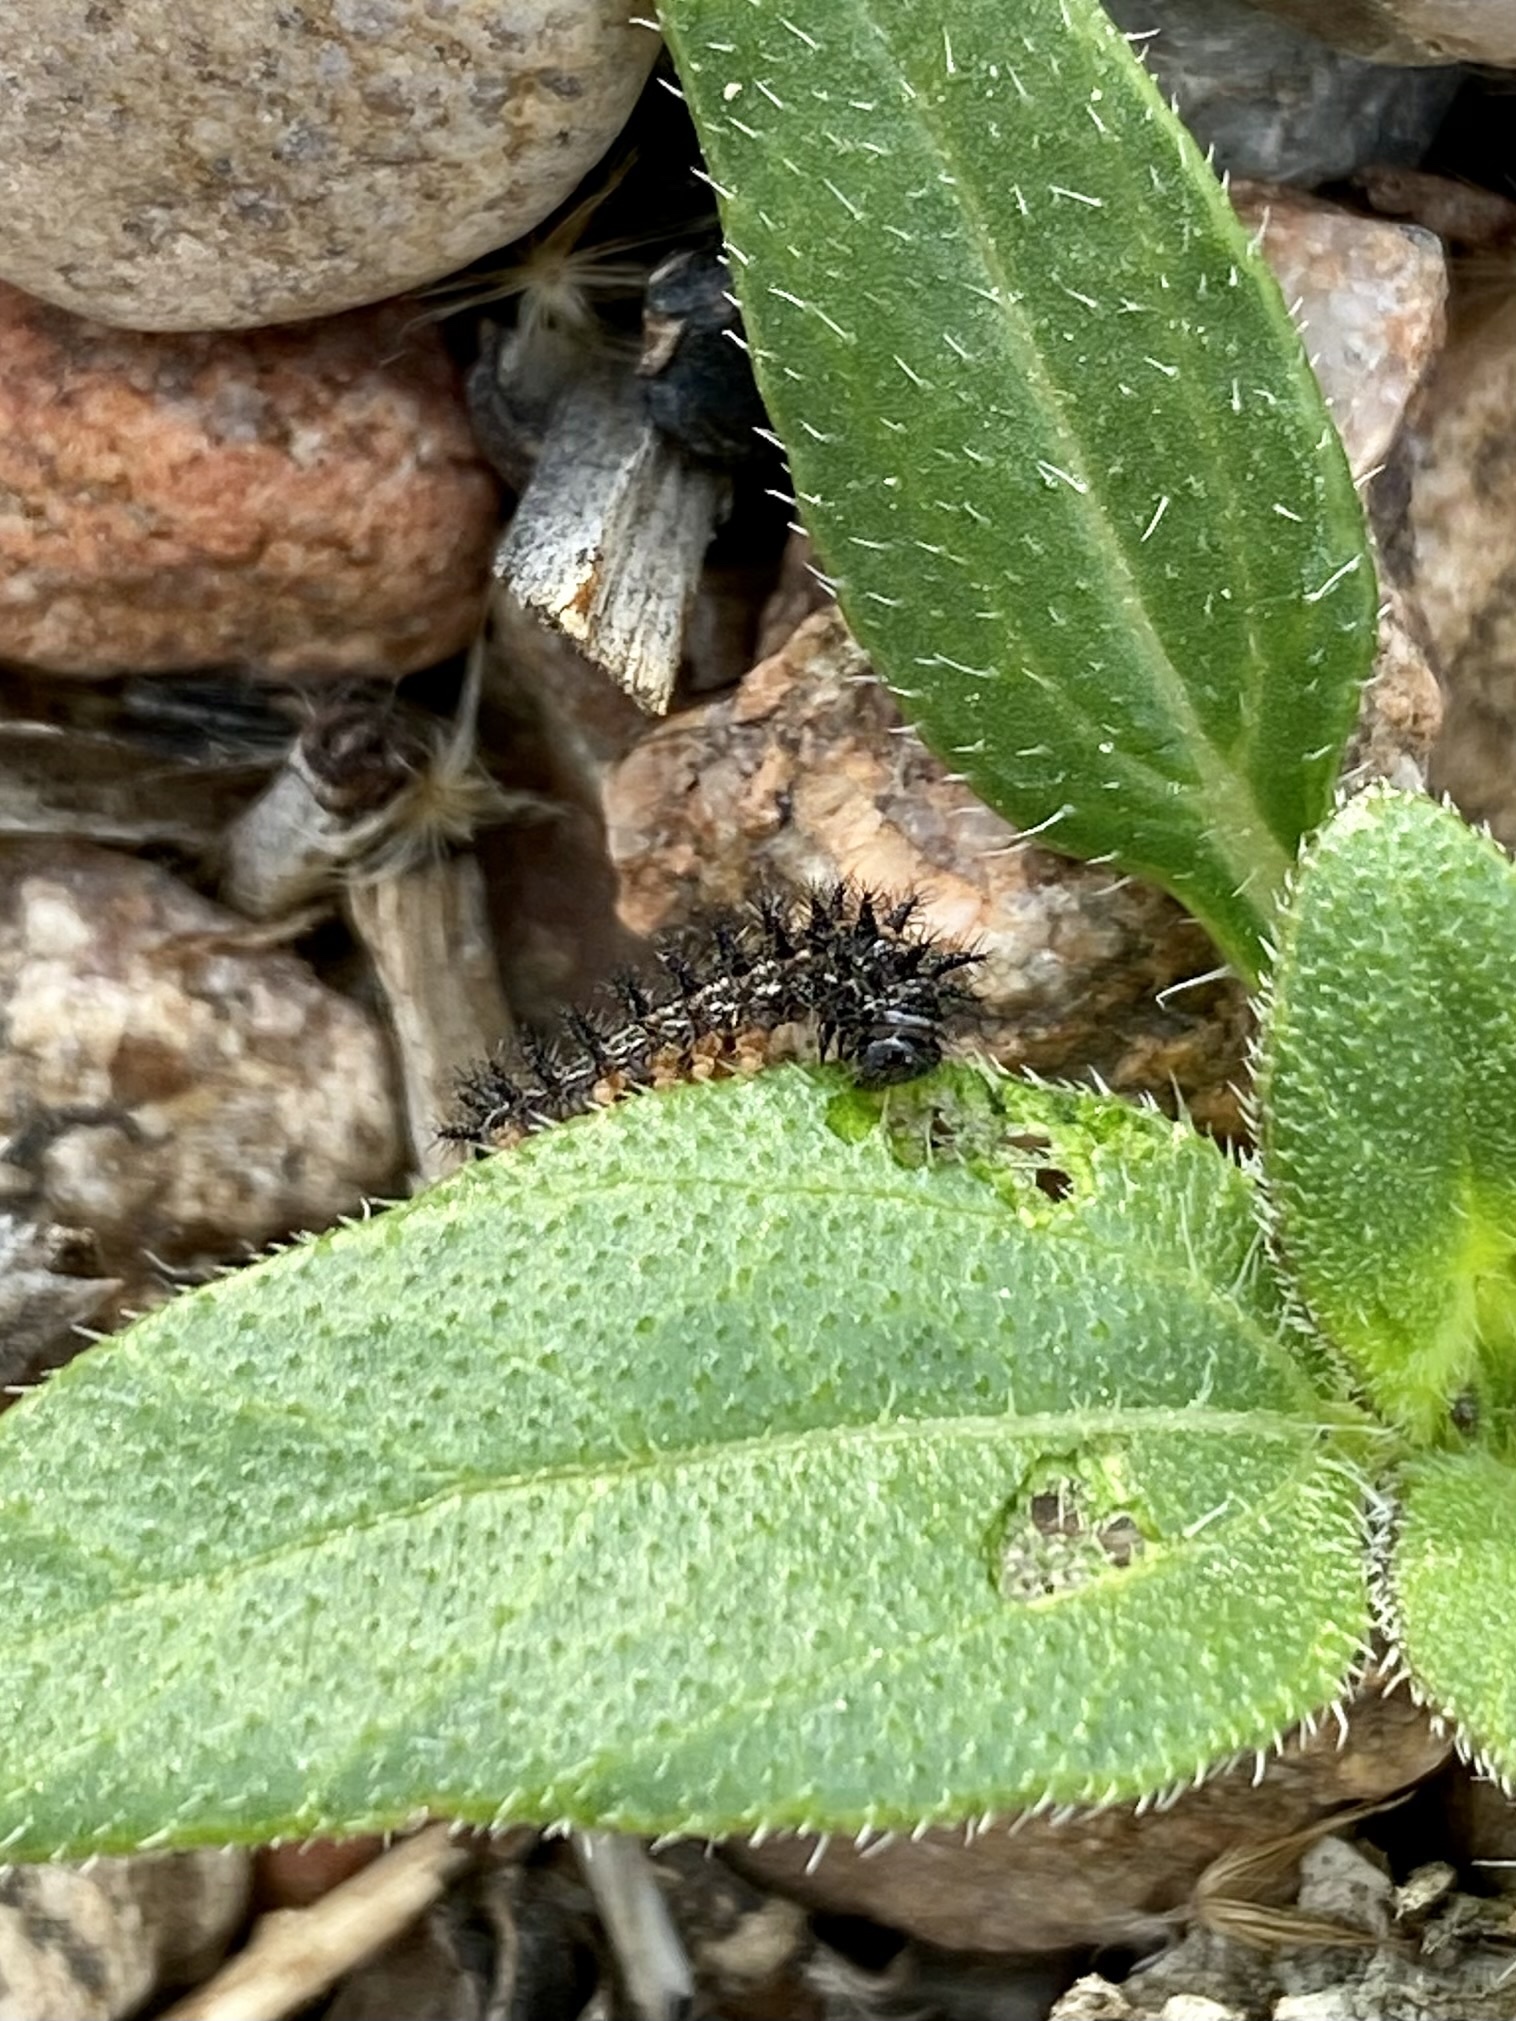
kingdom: Animalia
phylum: Arthropoda
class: Insecta
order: Lepidoptera
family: Nymphalidae
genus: Chlosyne
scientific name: Chlosyne
